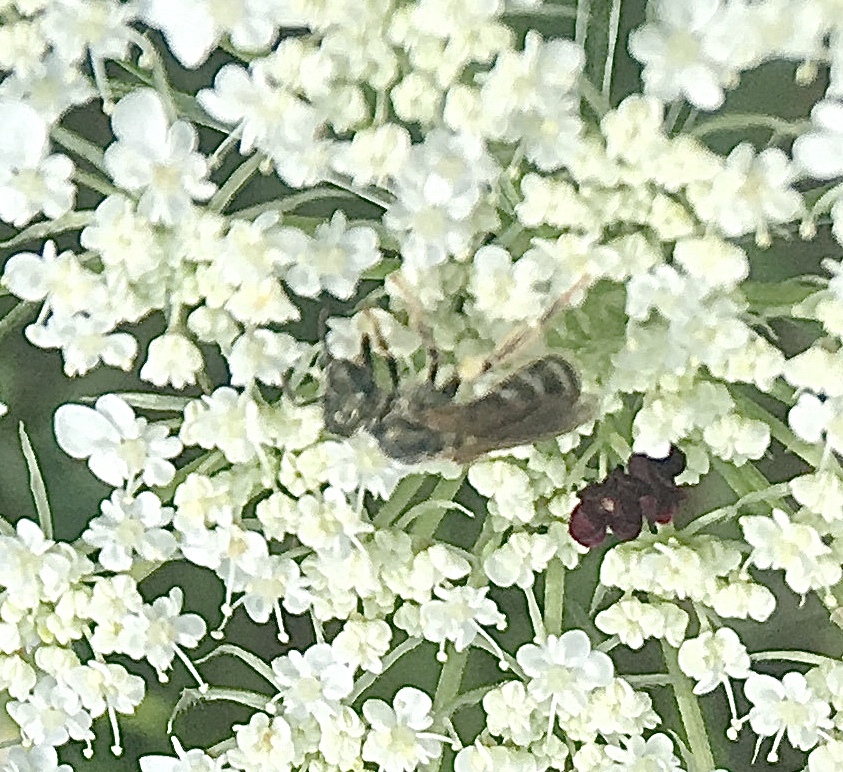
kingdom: Animalia
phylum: Arthropoda
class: Insecta
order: Hymenoptera
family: Halictidae
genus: Halictus
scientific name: Halictus confusus
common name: Southern bronze furrow bee
